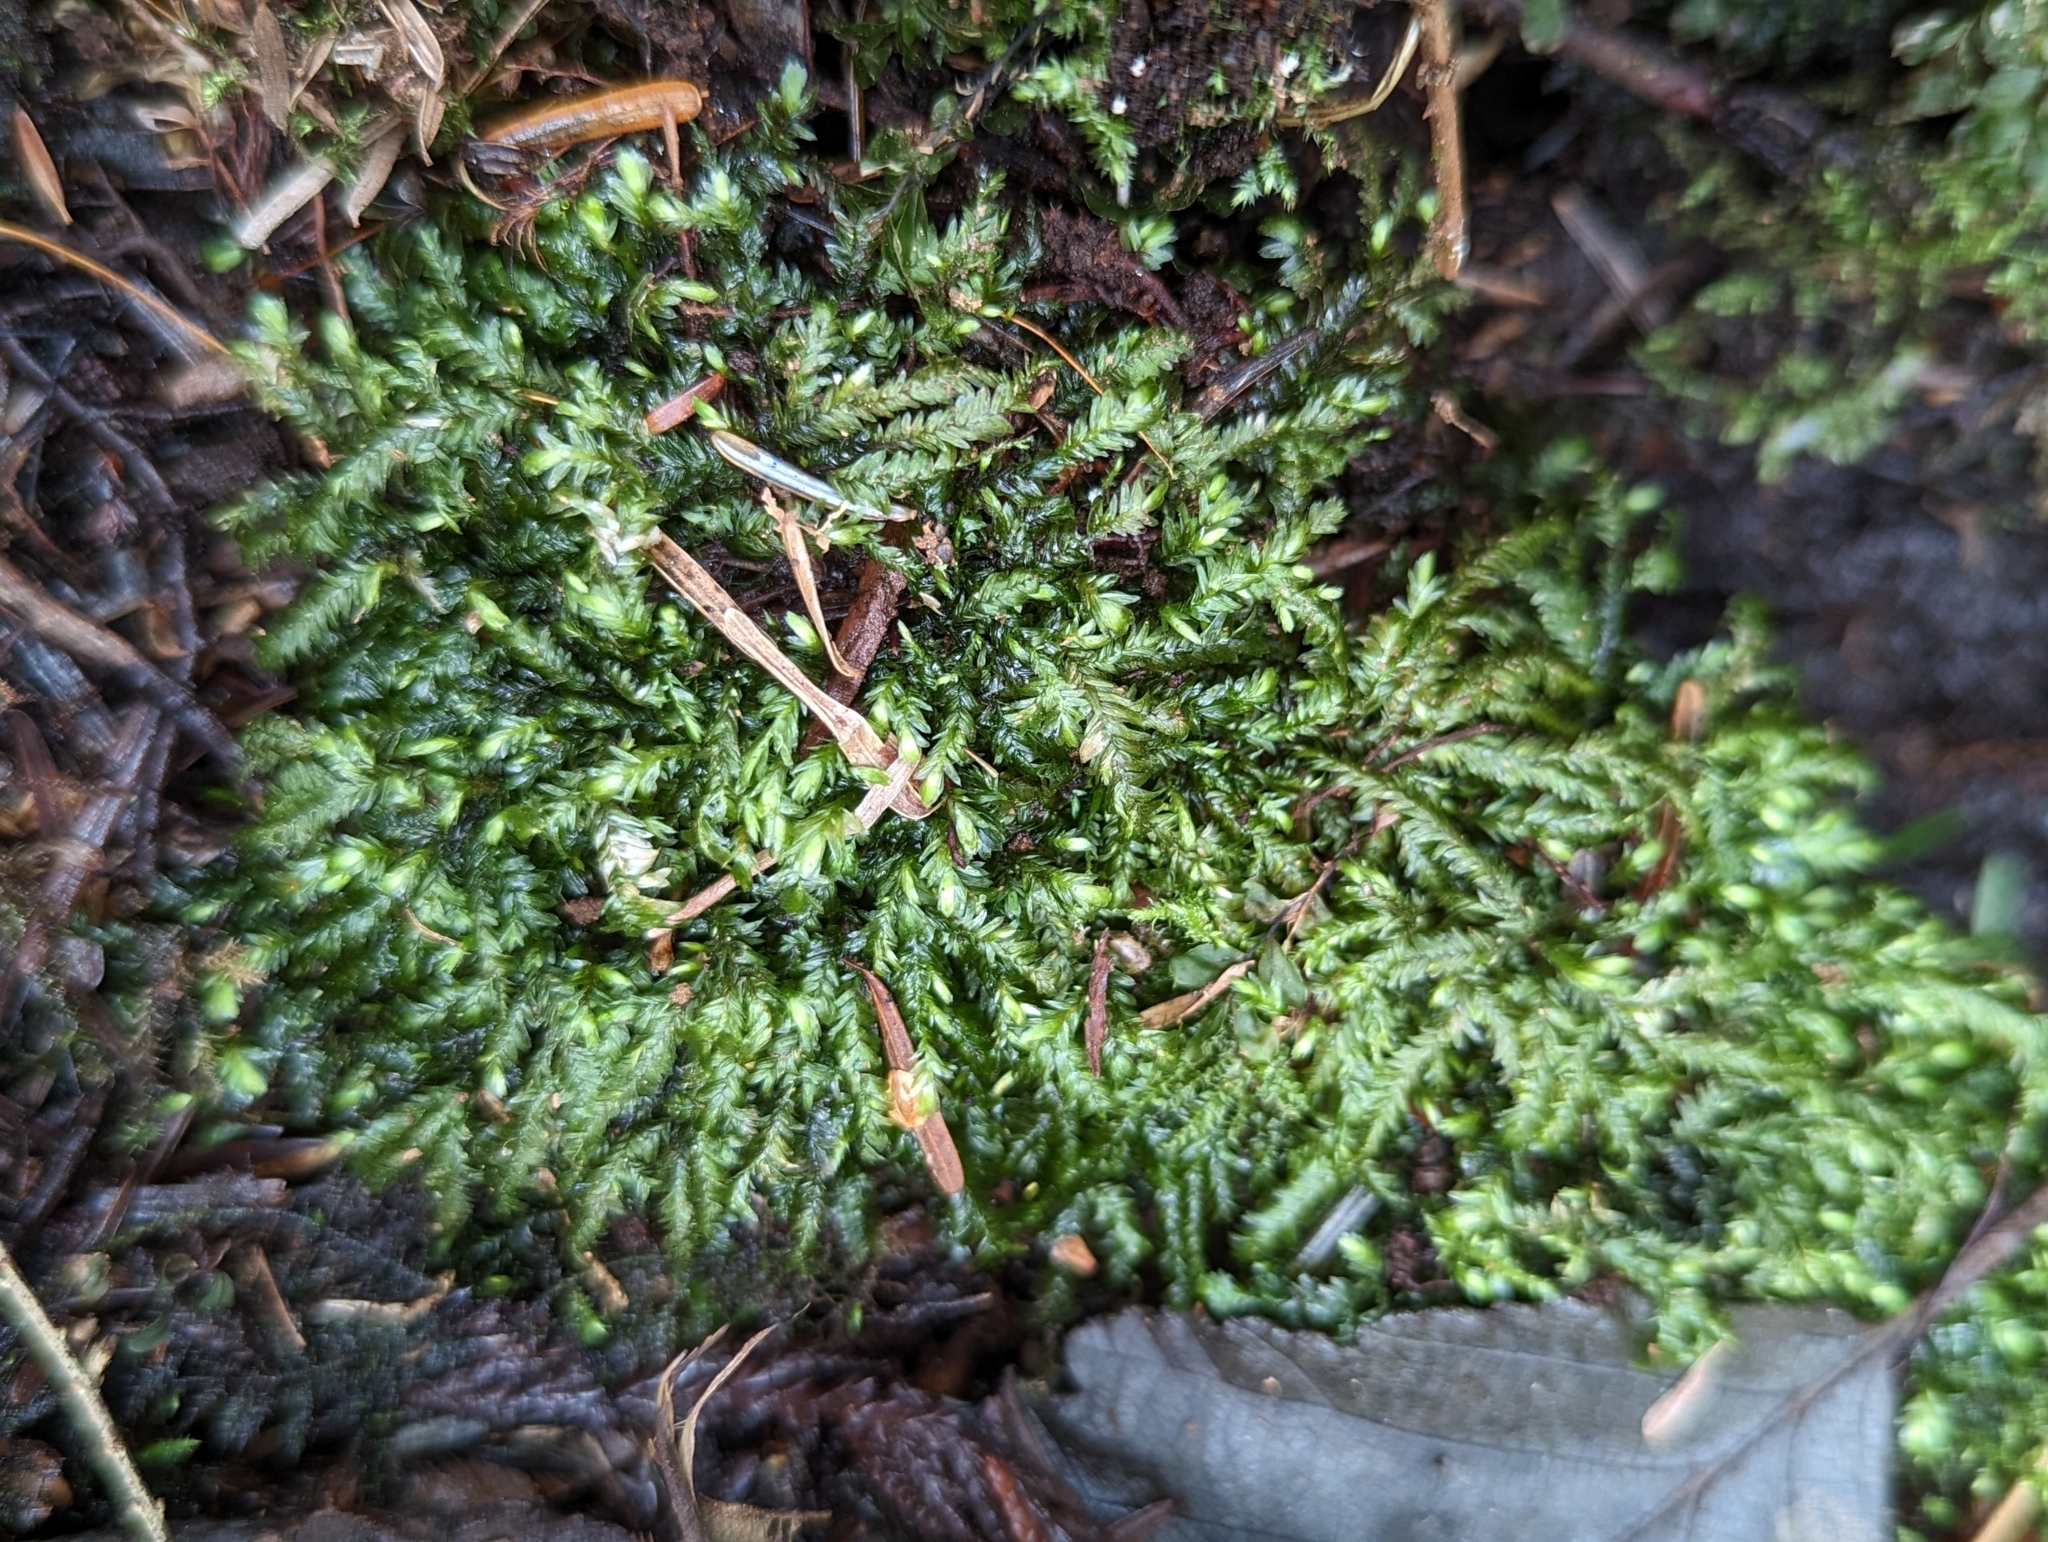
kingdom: Plantae
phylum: Bryophyta
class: Bryopsida
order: Hypnales
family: Neckeraceae
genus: Dannorrisia
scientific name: Dannorrisia bigelovii
